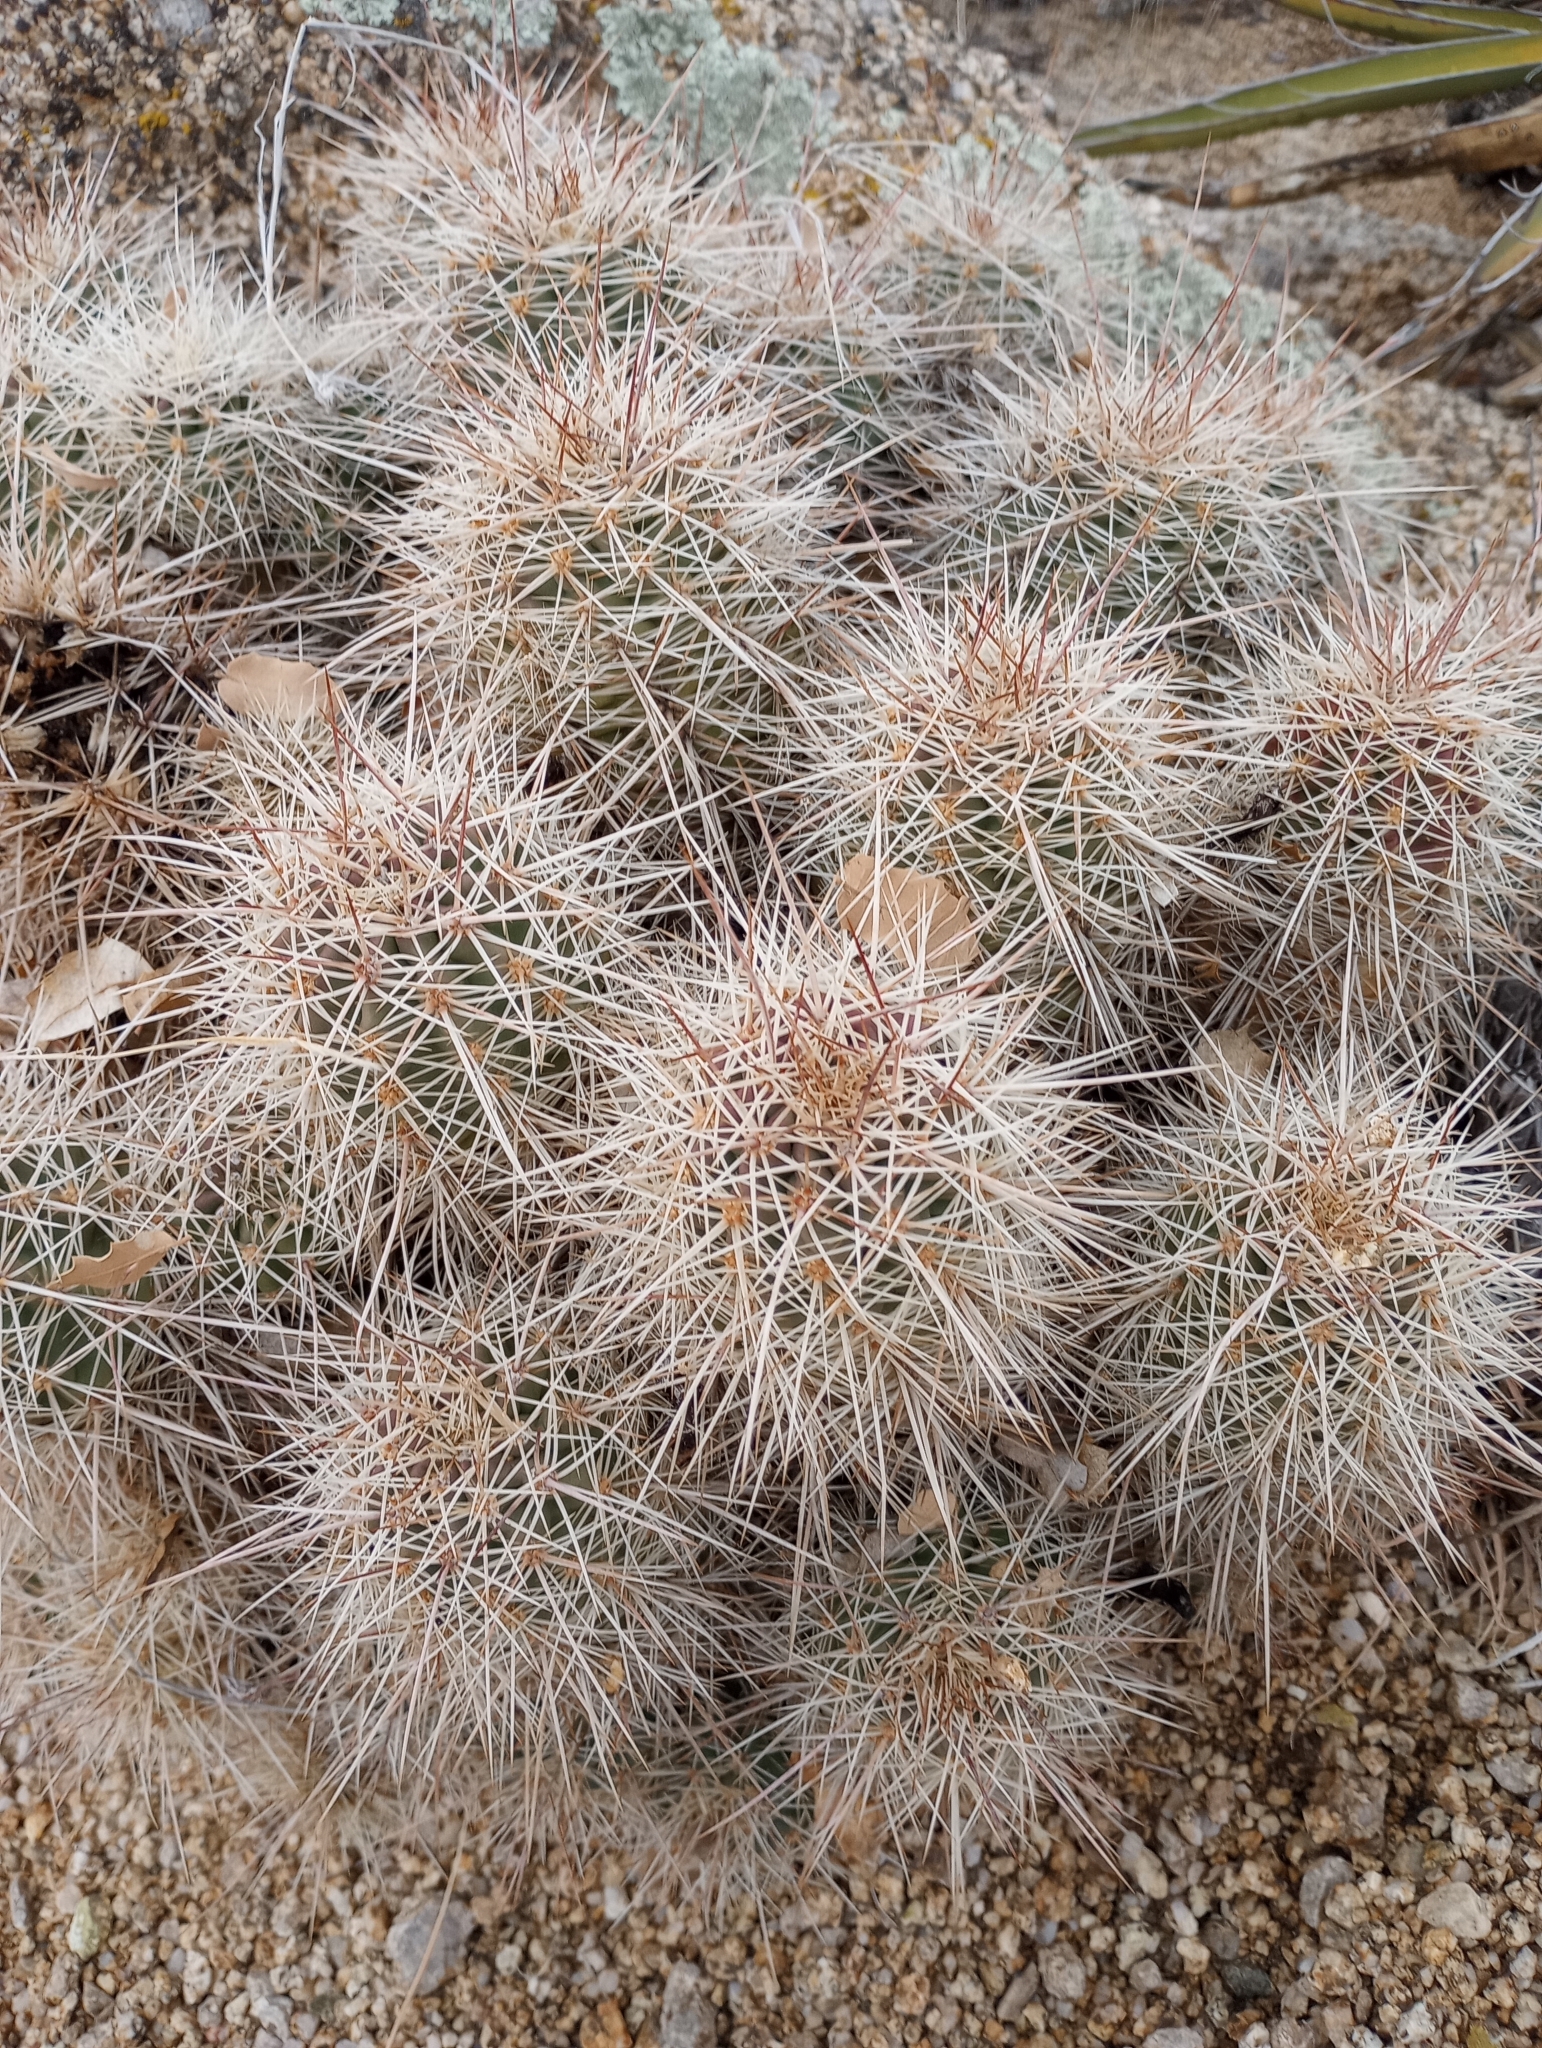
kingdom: Plantae
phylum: Tracheophyta
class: Magnoliopsida
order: Caryophyllales
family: Cactaceae
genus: Echinocereus
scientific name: Echinocereus coccineus
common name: Scarlet hedgehog cactus
